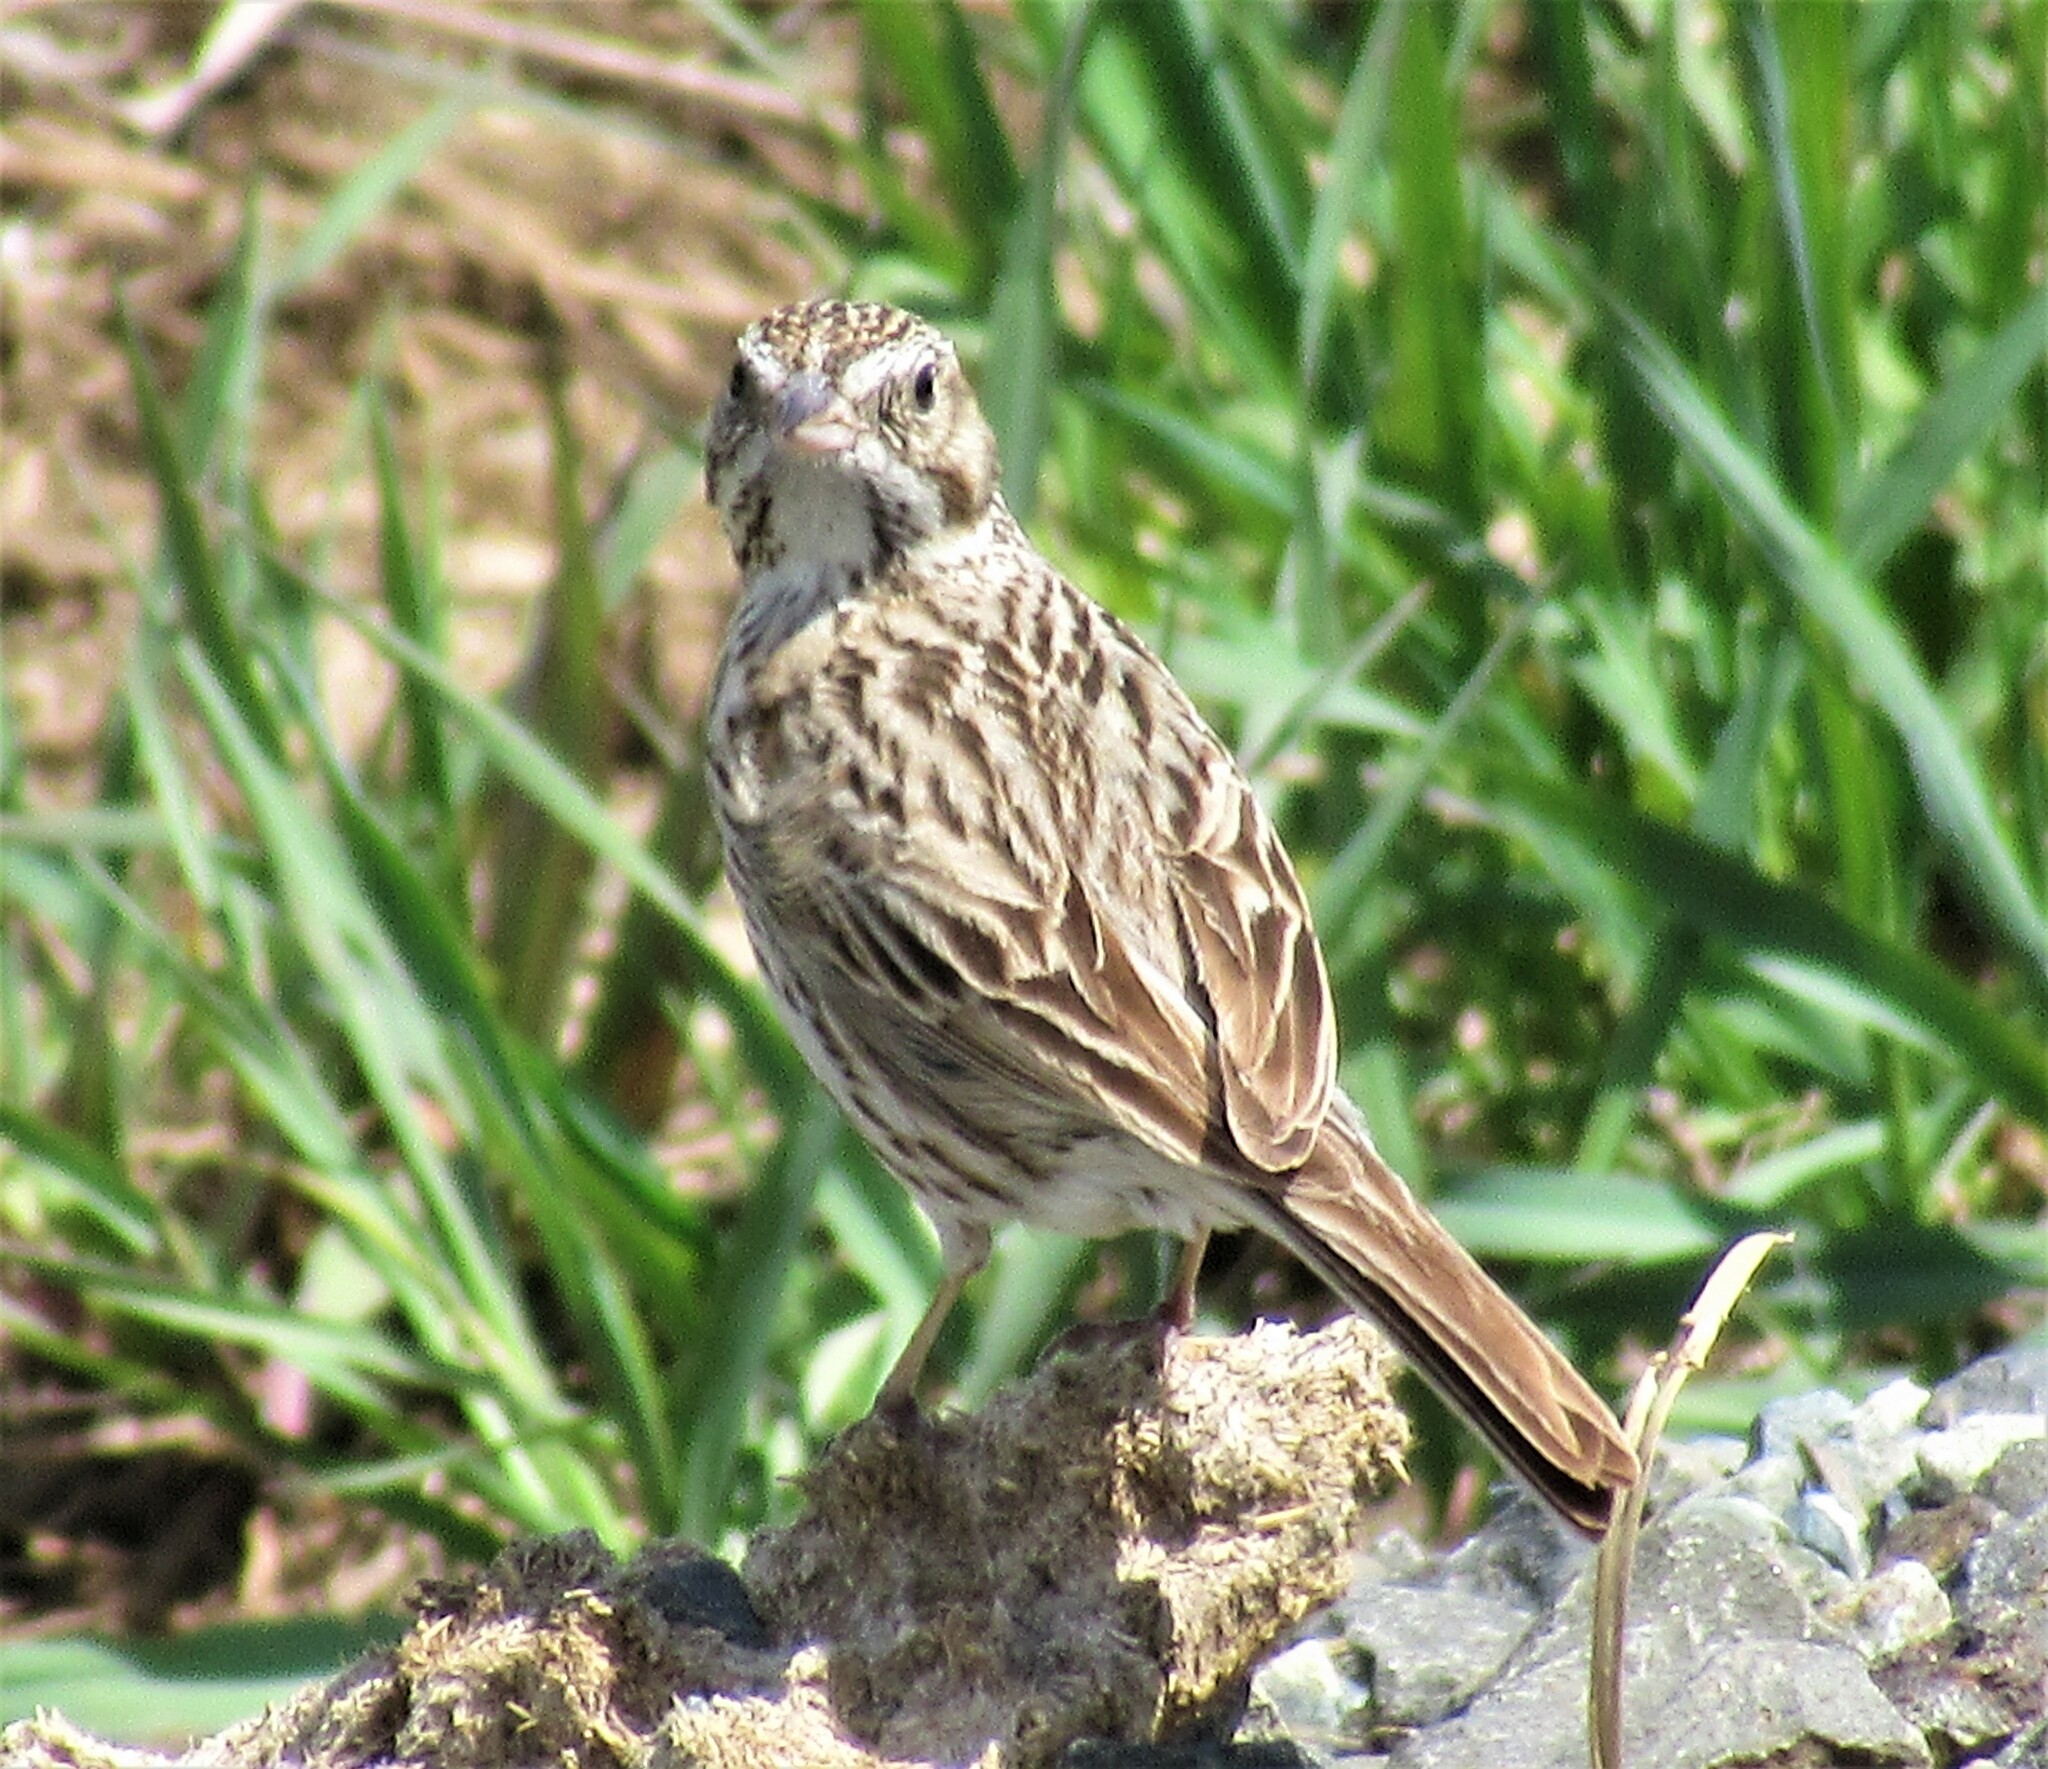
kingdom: Animalia
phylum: Chordata
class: Aves
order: Passeriformes
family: Passerellidae
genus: Pooecetes
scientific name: Pooecetes gramineus
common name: Vesper sparrow
